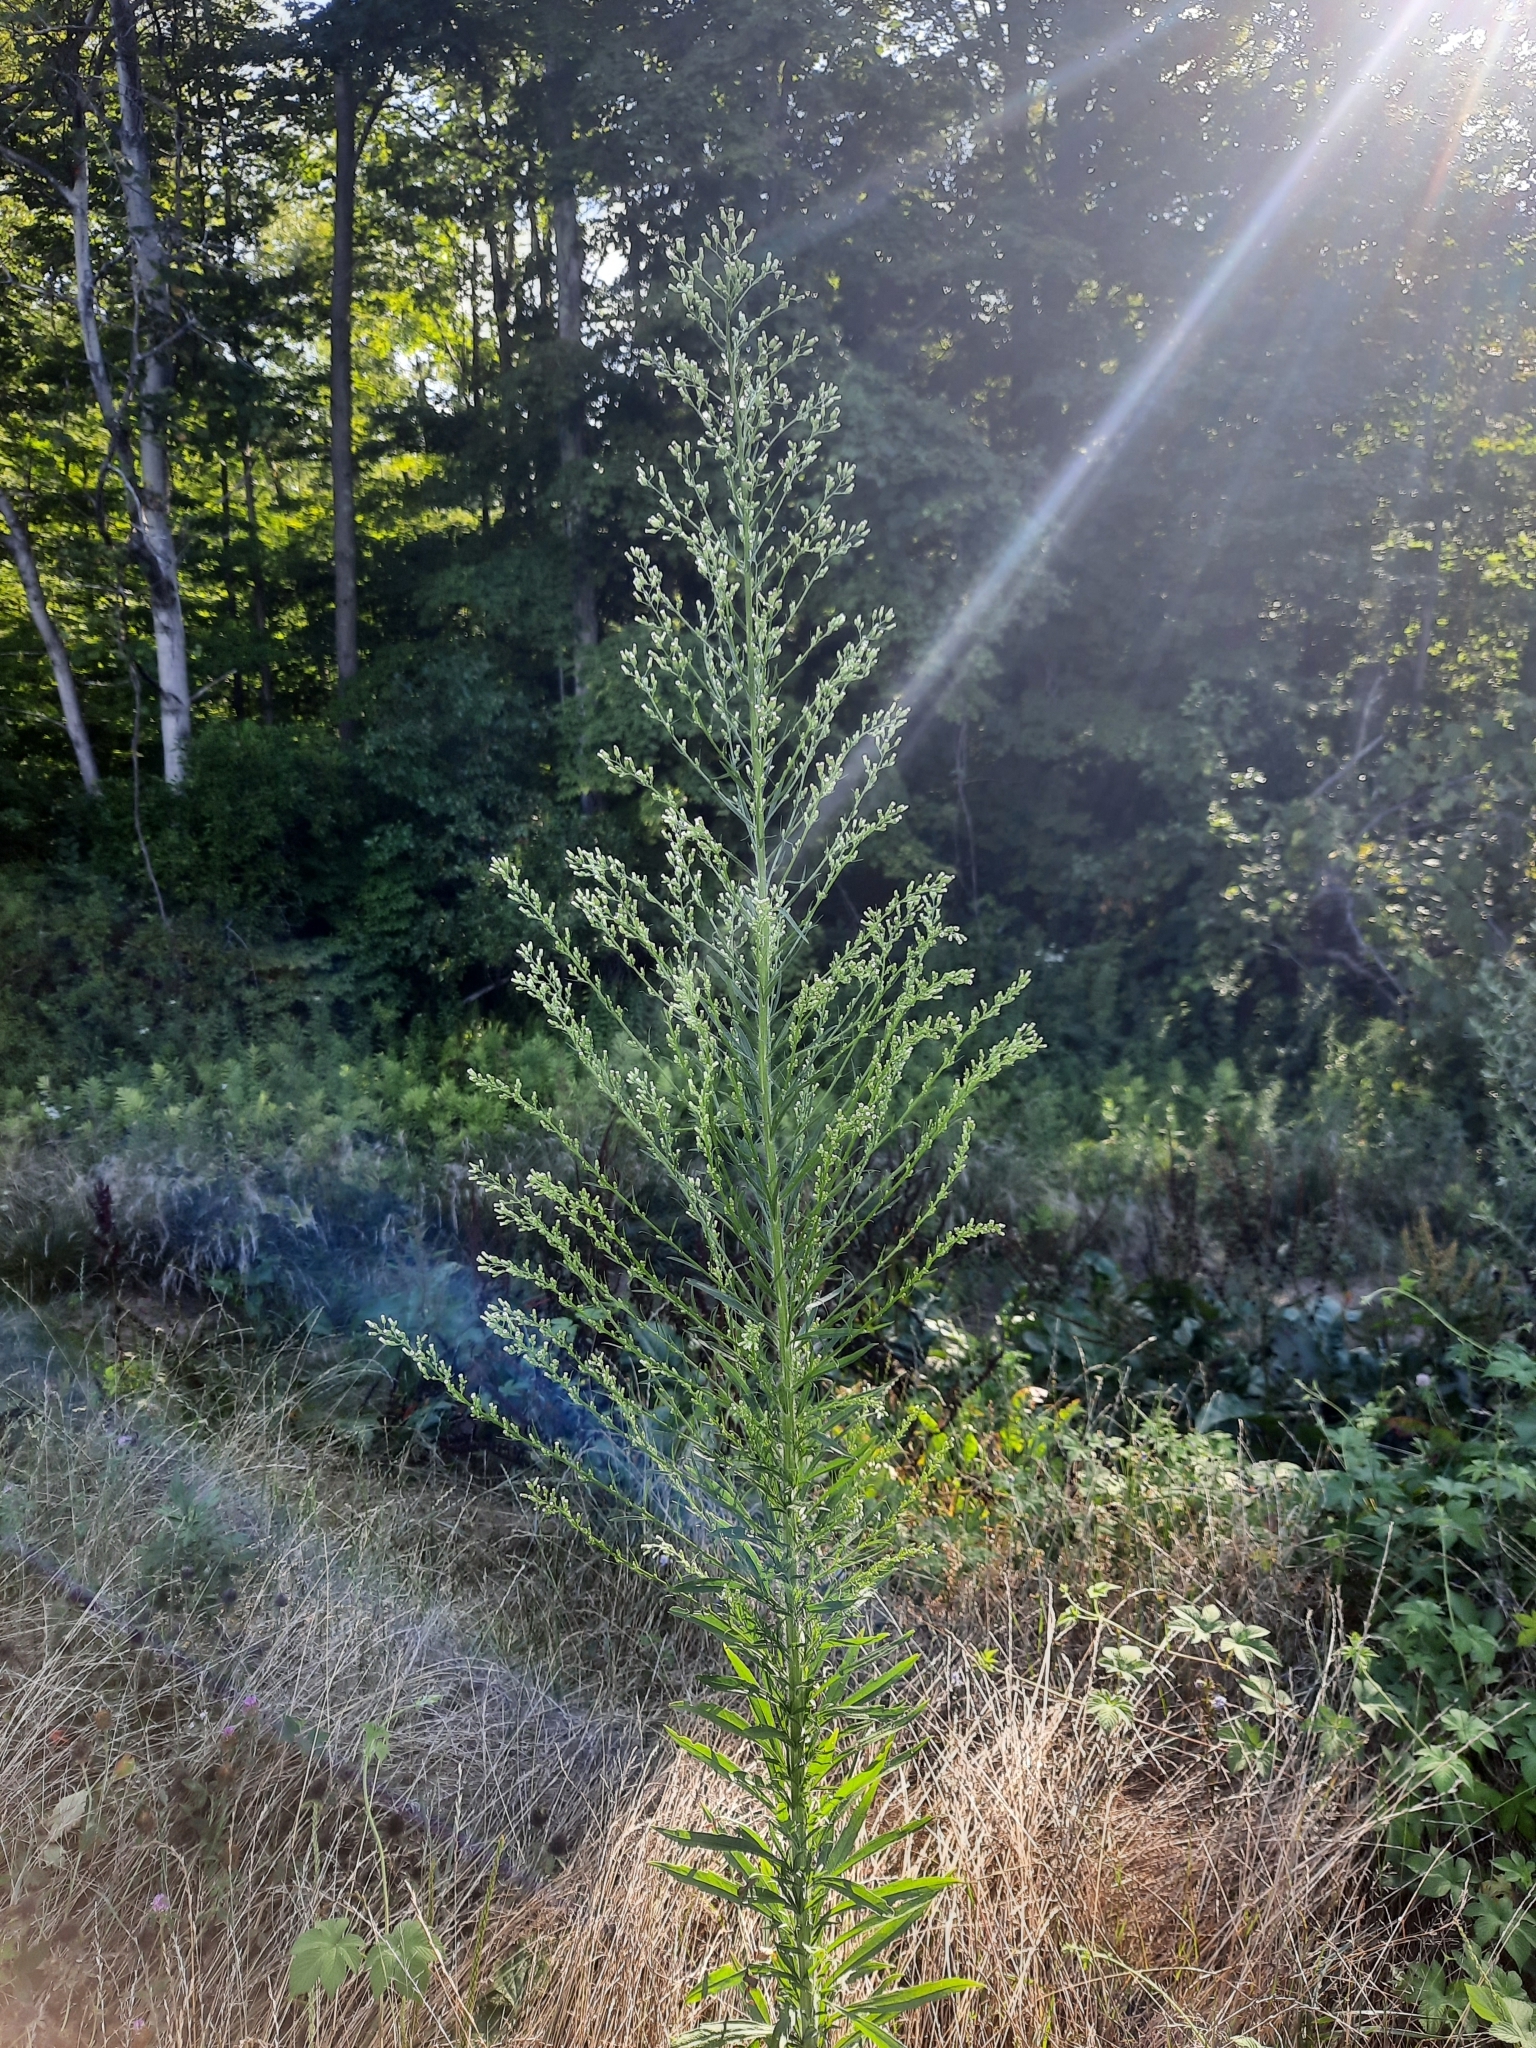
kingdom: Plantae
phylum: Tracheophyta
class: Magnoliopsida
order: Asterales
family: Asteraceae
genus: Erigeron
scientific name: Erigeron canadensis
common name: Canadian fleabane
